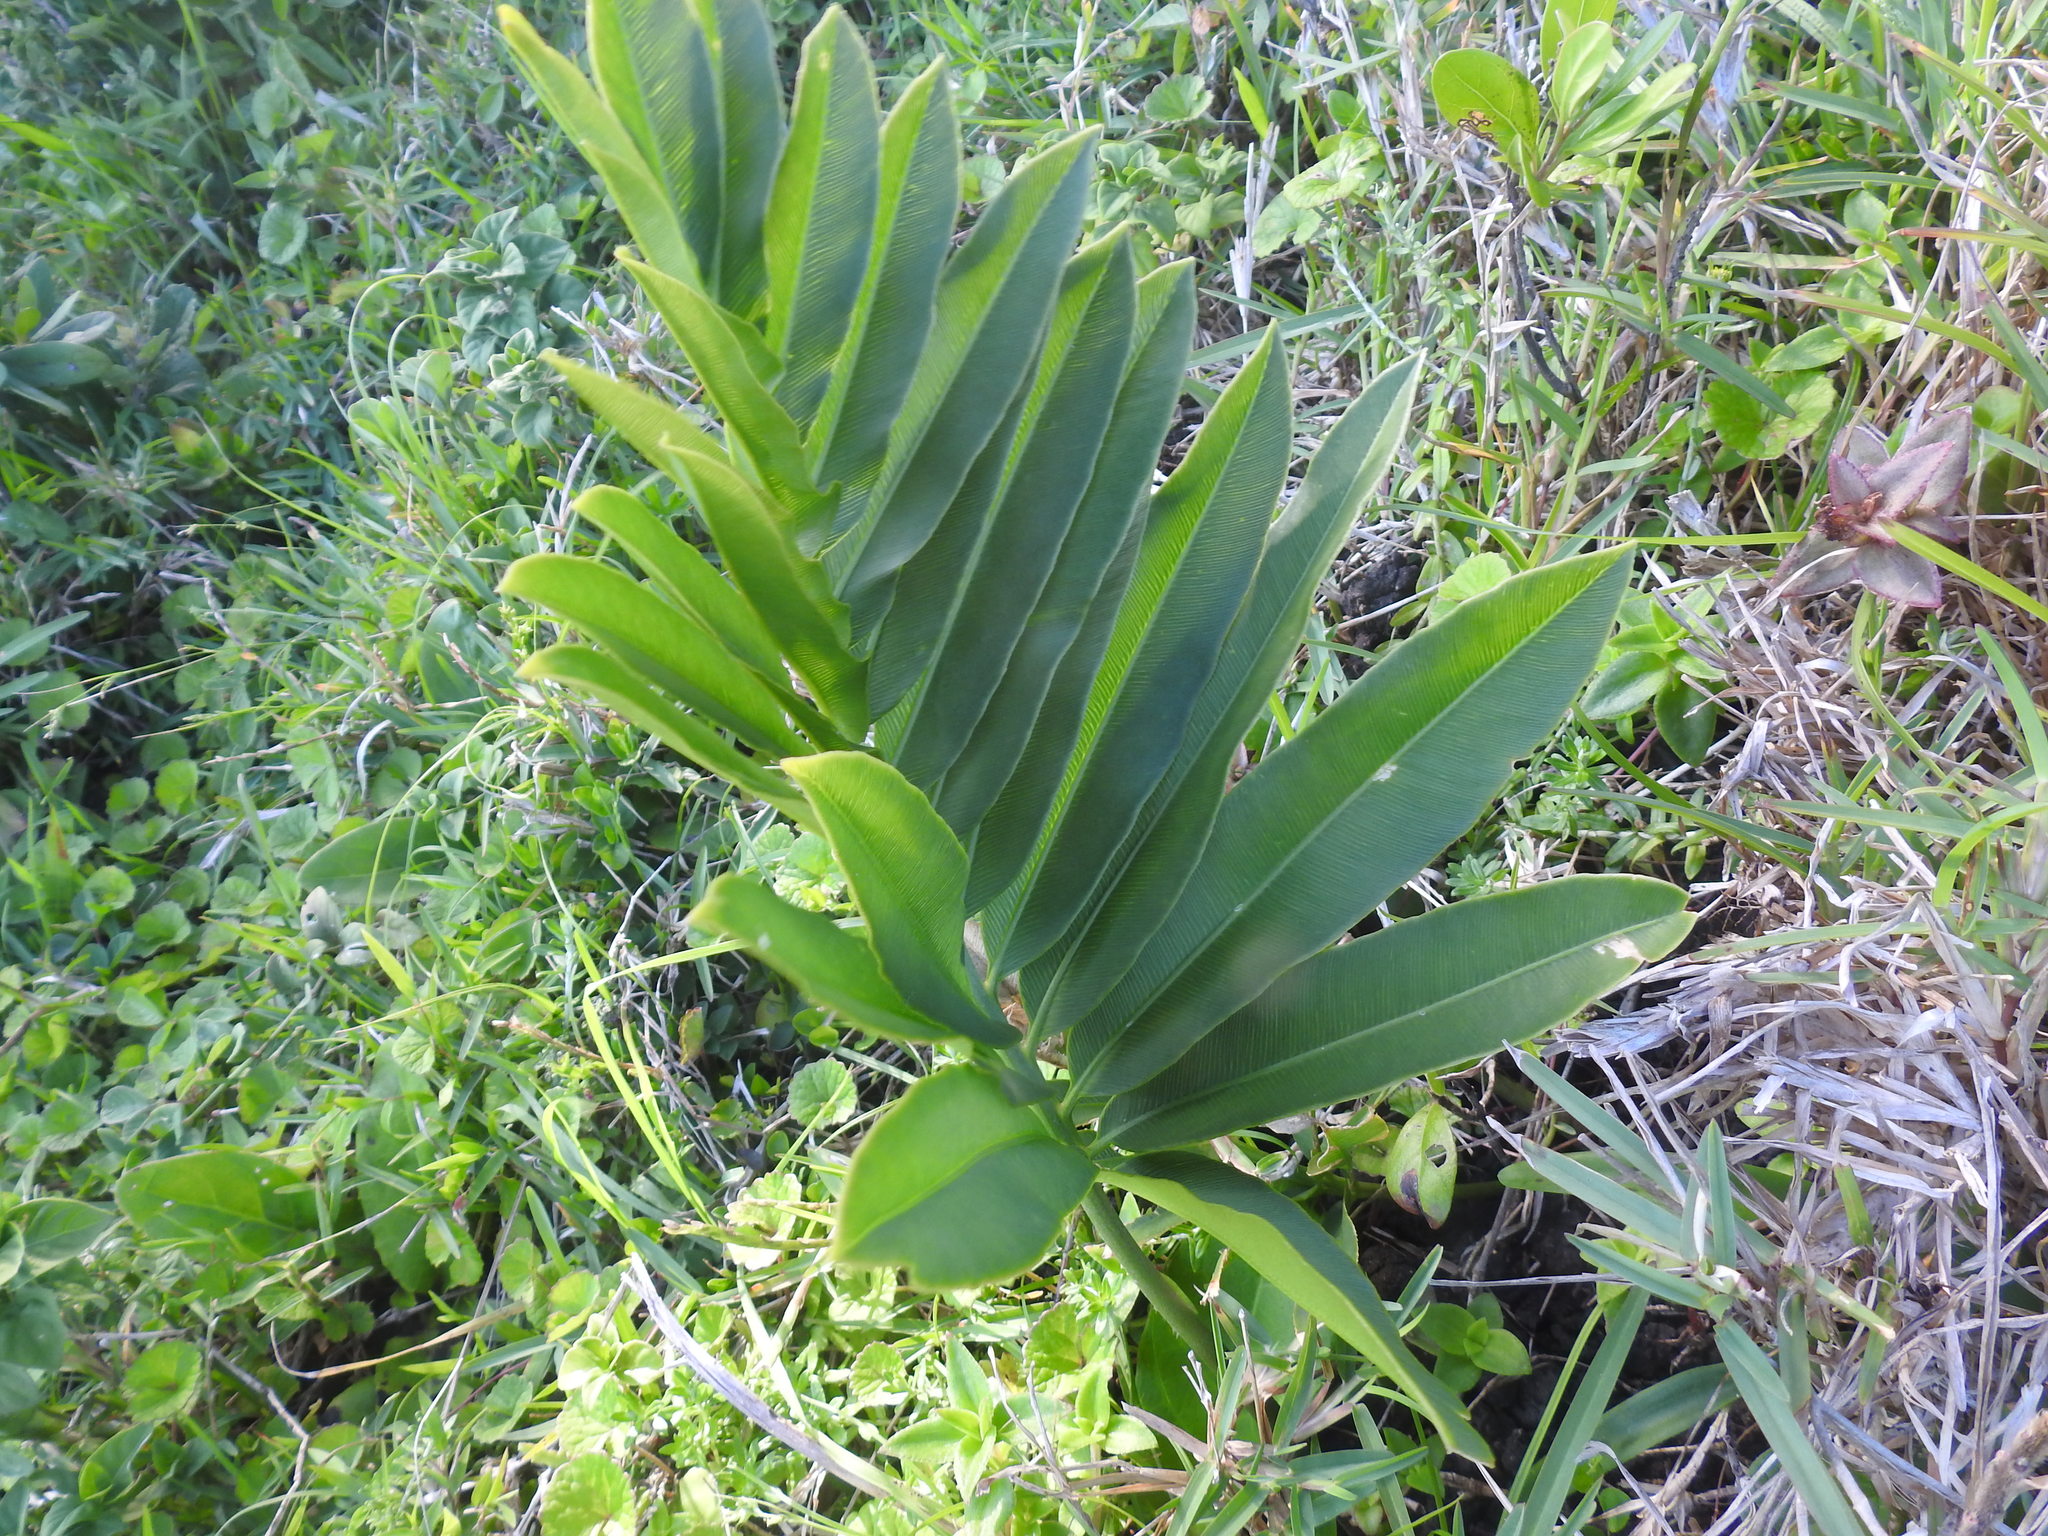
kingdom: Plantae
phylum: Tracheophyta
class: Cycadopsida
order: Cycadales
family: Zamiaceae
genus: Stangeria
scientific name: Stangeria eriopus
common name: Natal grass cycad
